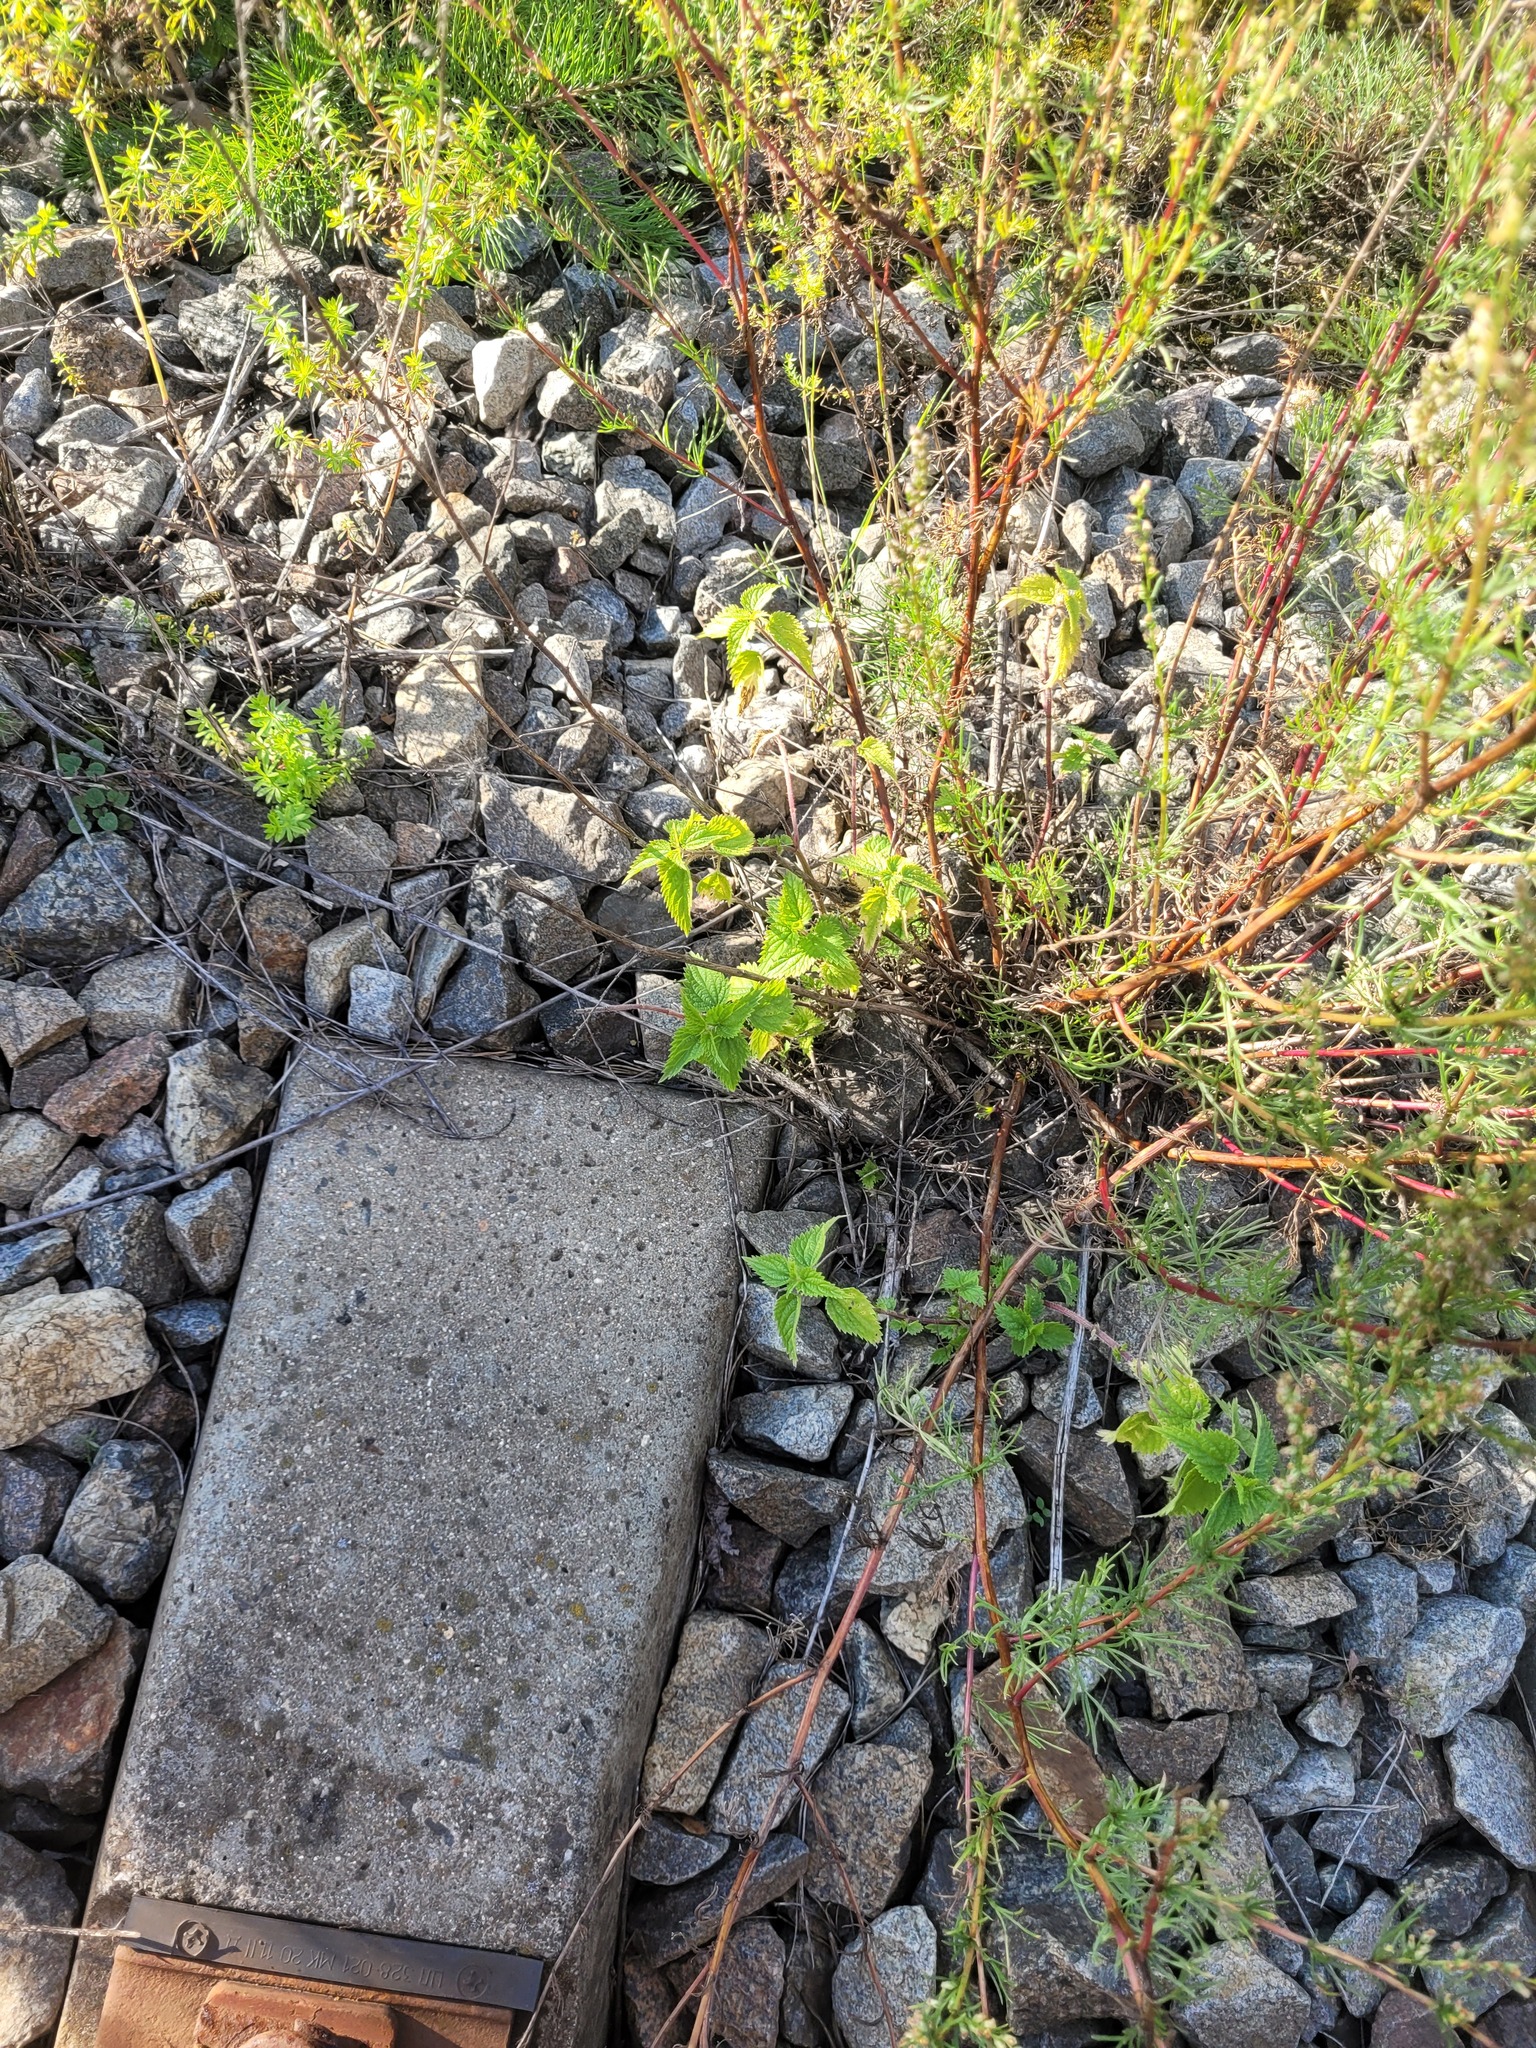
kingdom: Plantae
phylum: Tracheophyta
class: Magnoliopsida
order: Rosales
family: Urticaceae
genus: Urtica
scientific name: Urtica dioica
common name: Common nettle
